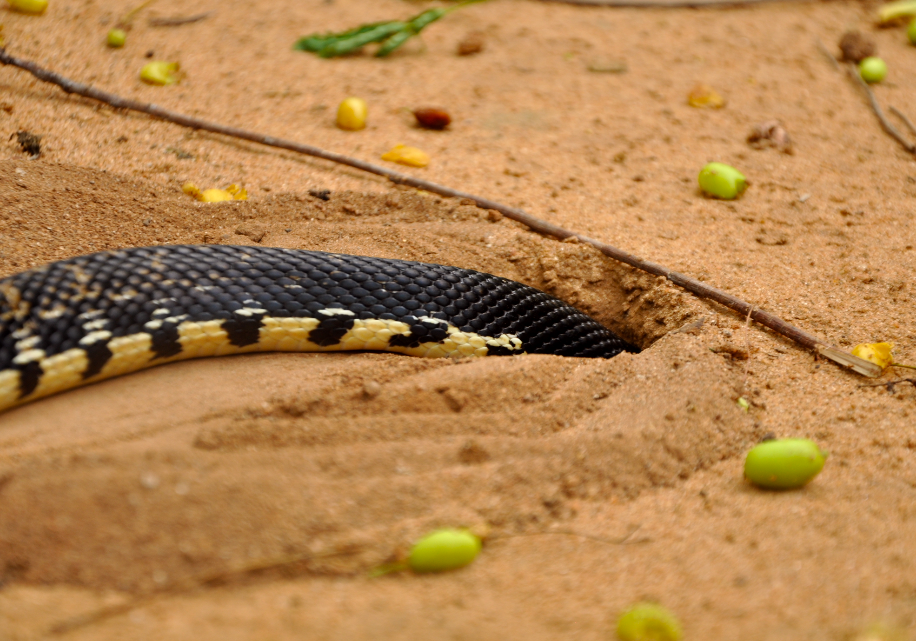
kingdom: Animalia
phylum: Chordata
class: Squamata
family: Pseudoxyrhophiidae
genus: Leioheterodon
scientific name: Leioheterodon madagascariensis
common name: Malagasy giant hognose snake
